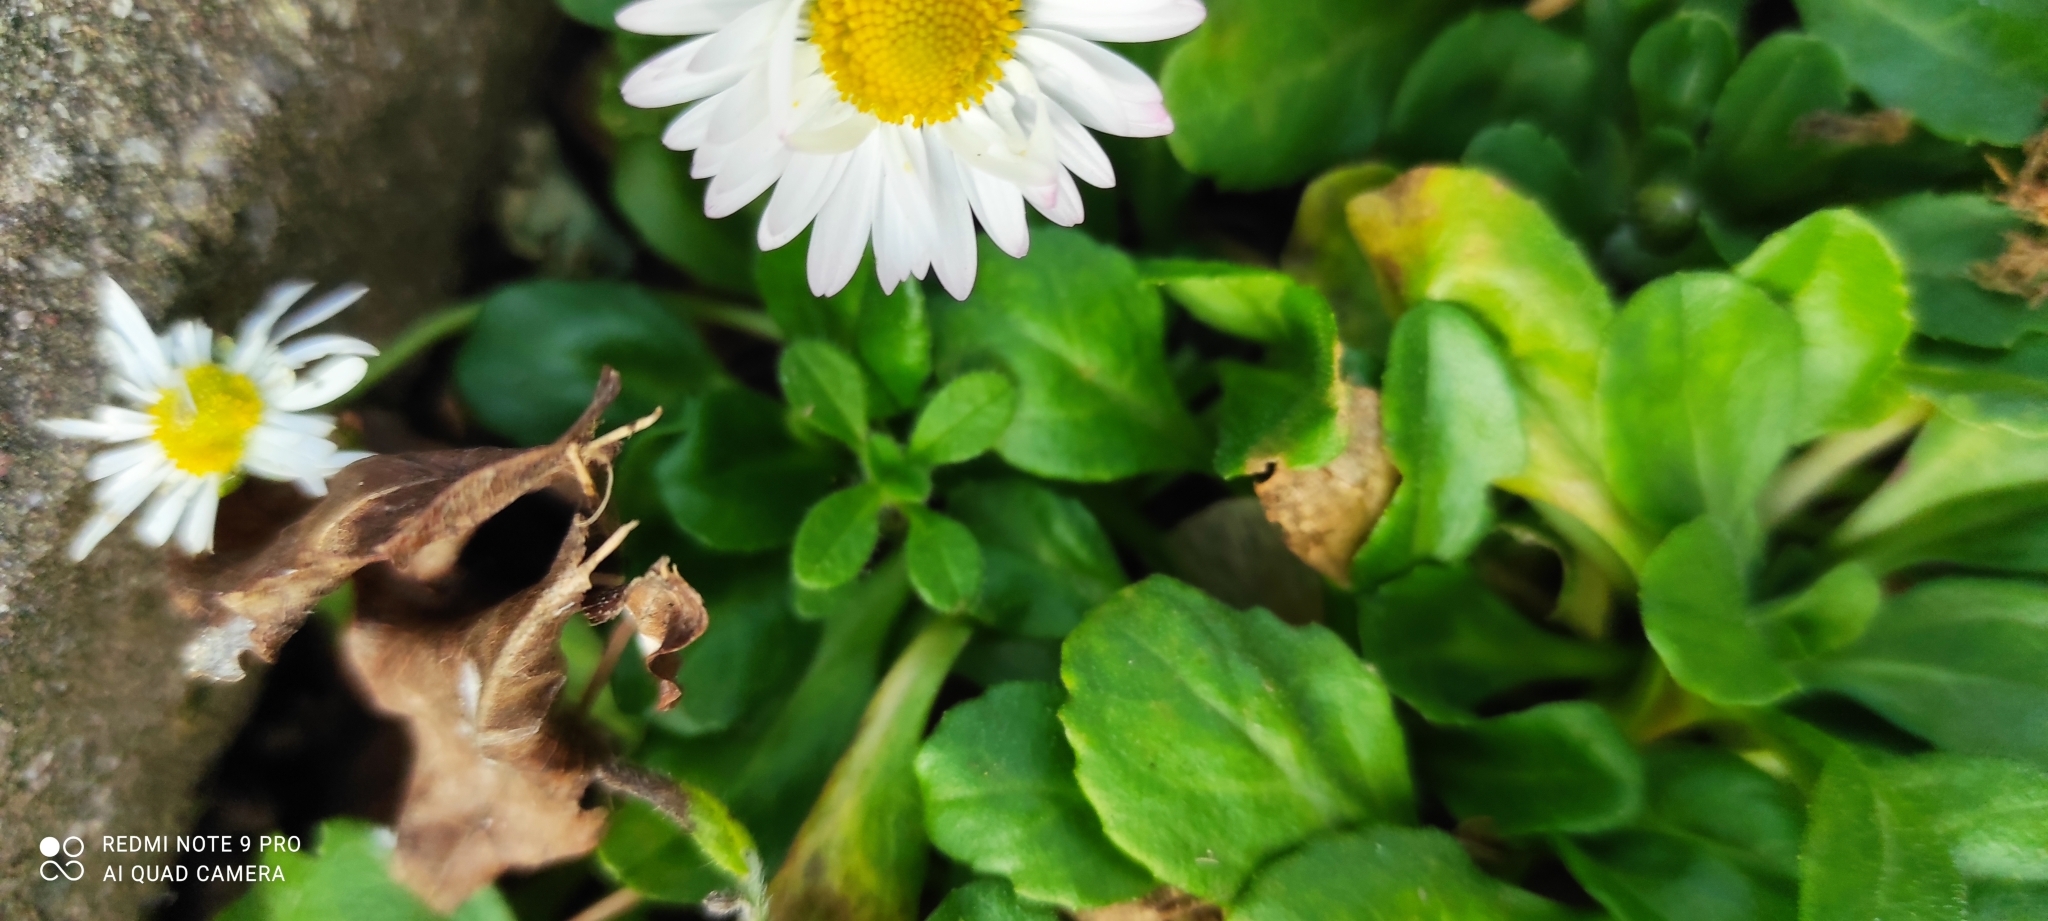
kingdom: Plantae
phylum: Tracheophyta
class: Magnoliopsida
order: Asterales
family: Asteraceae
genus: Bellis
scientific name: Bellis perennis
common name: Lawndaisy
